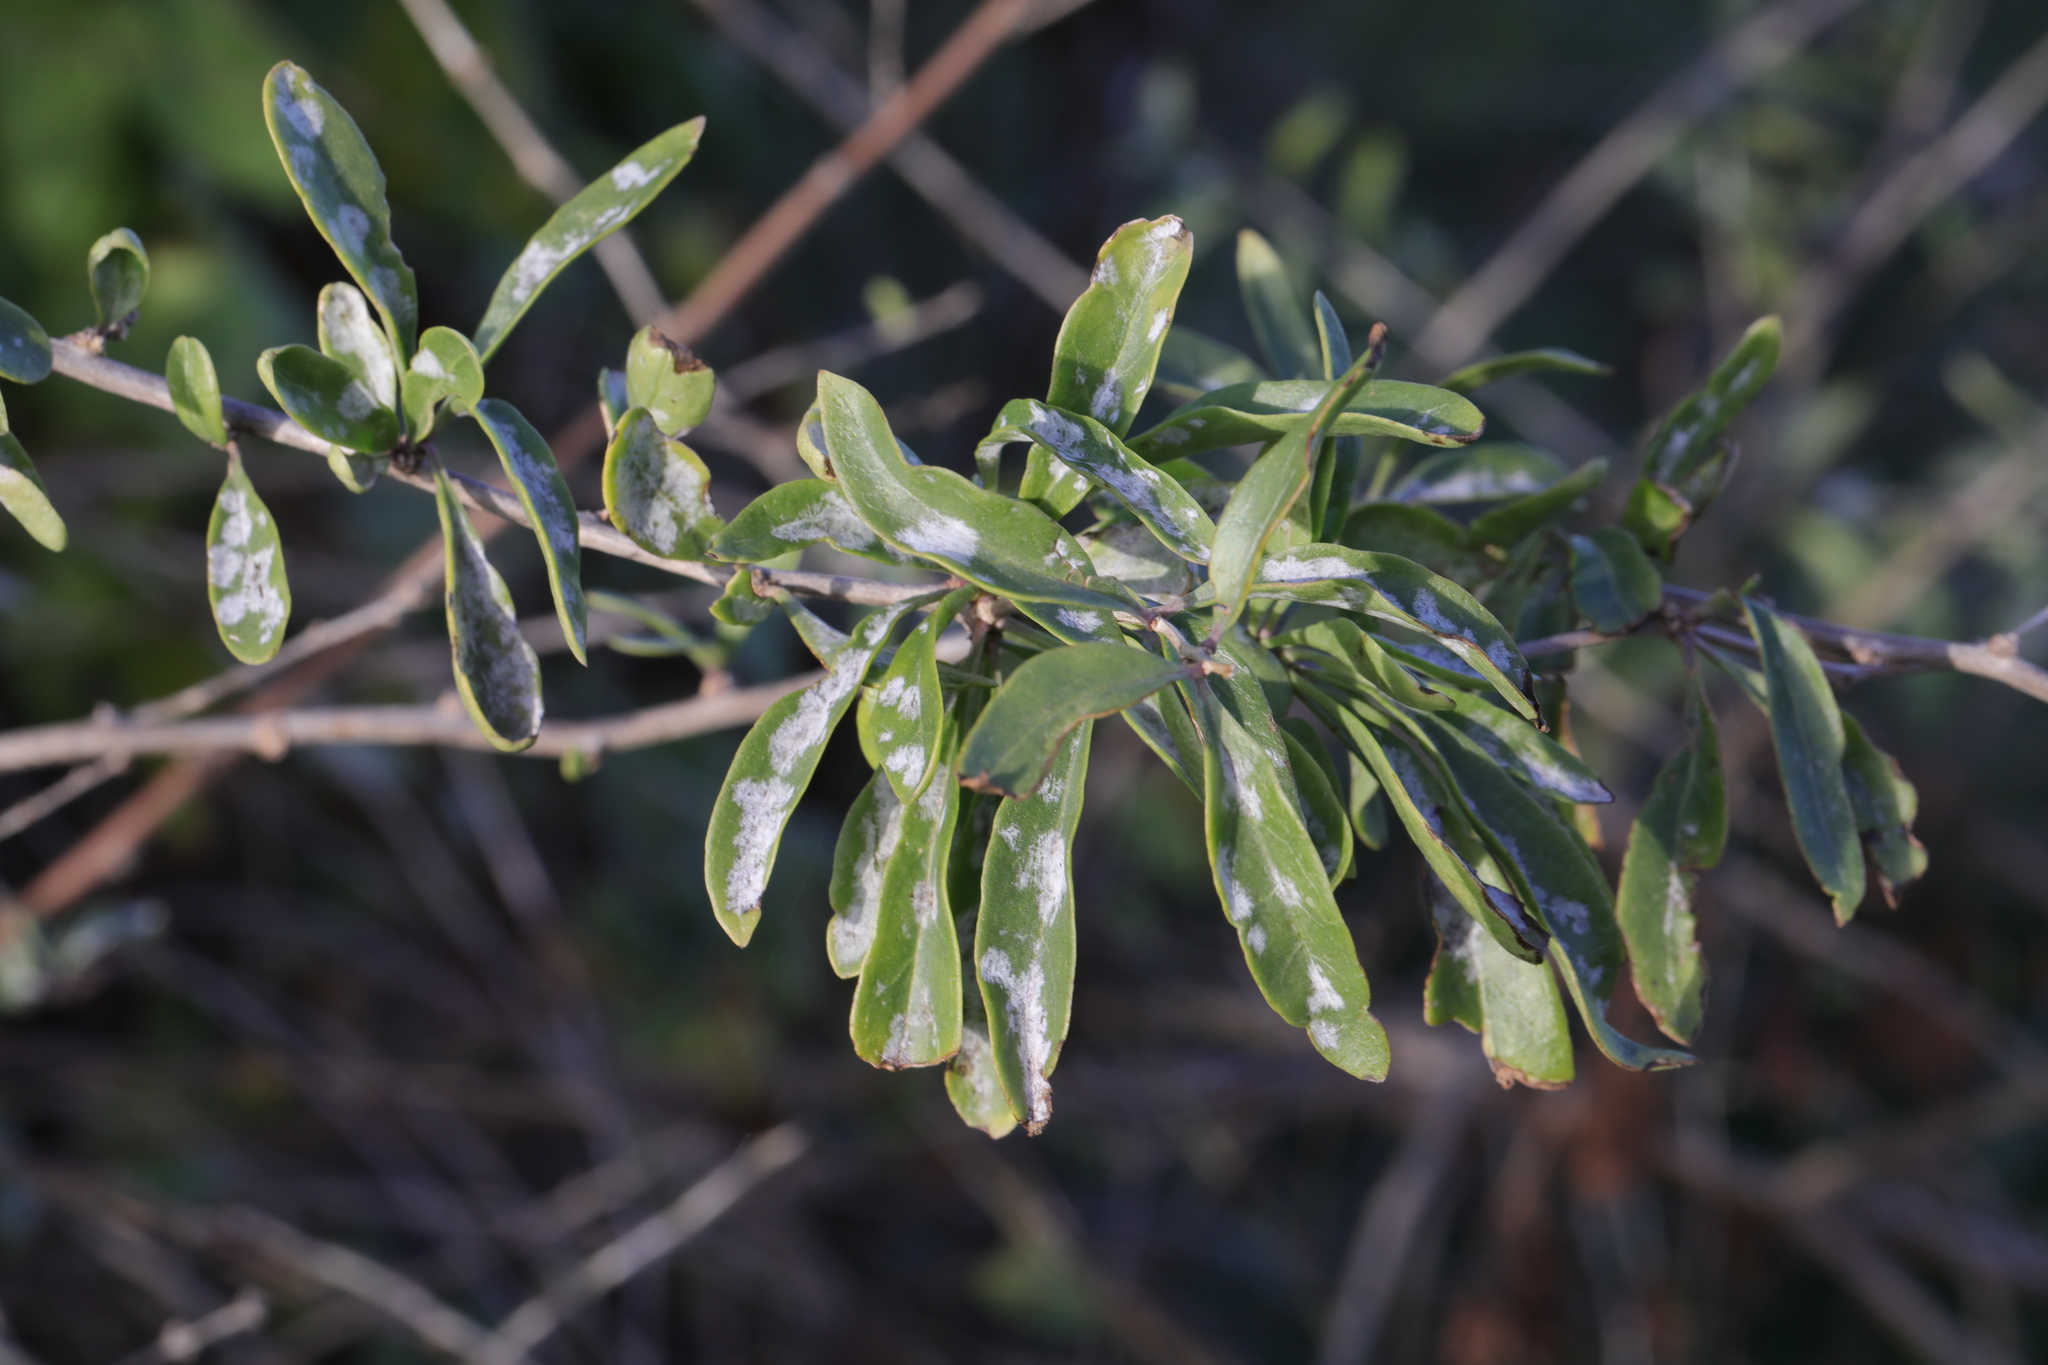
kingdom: Fungi
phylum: Ascomycota
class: Leotiomycetes
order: Helotiales
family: Erysiphaceae
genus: Erysiphe
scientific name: Erysiphe mougeotii
